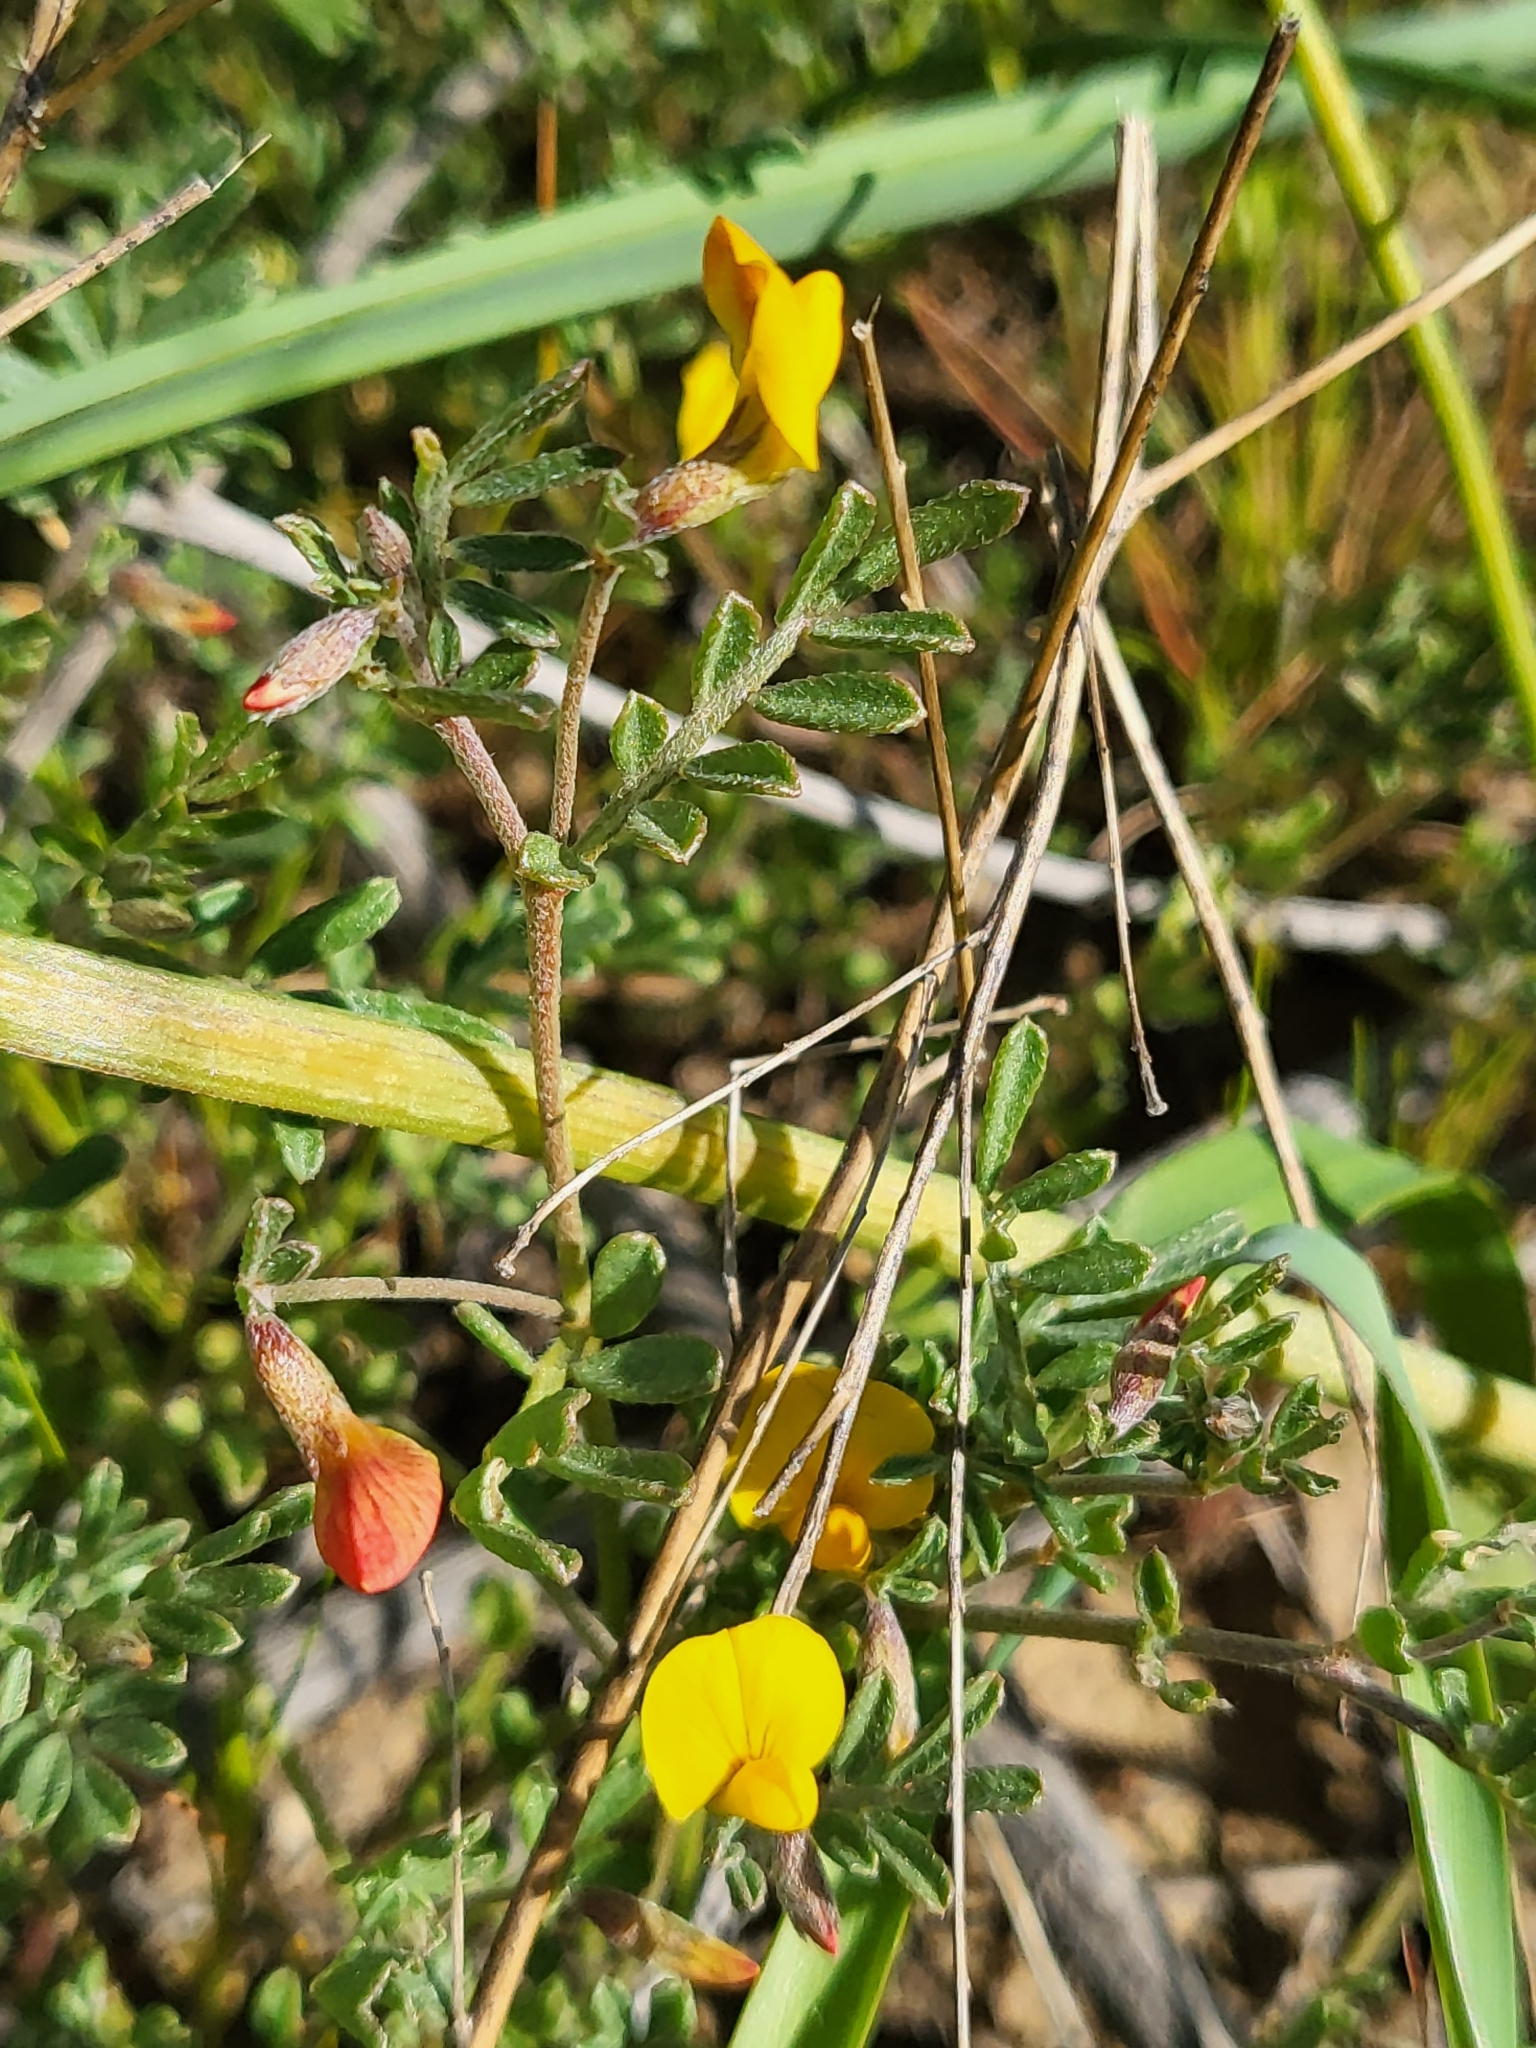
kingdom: Plantae
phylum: Tracheophyta
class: Magnoliopsida
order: Fabales
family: Fabaceae
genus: Acmispon
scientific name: Acmispon strigosus
